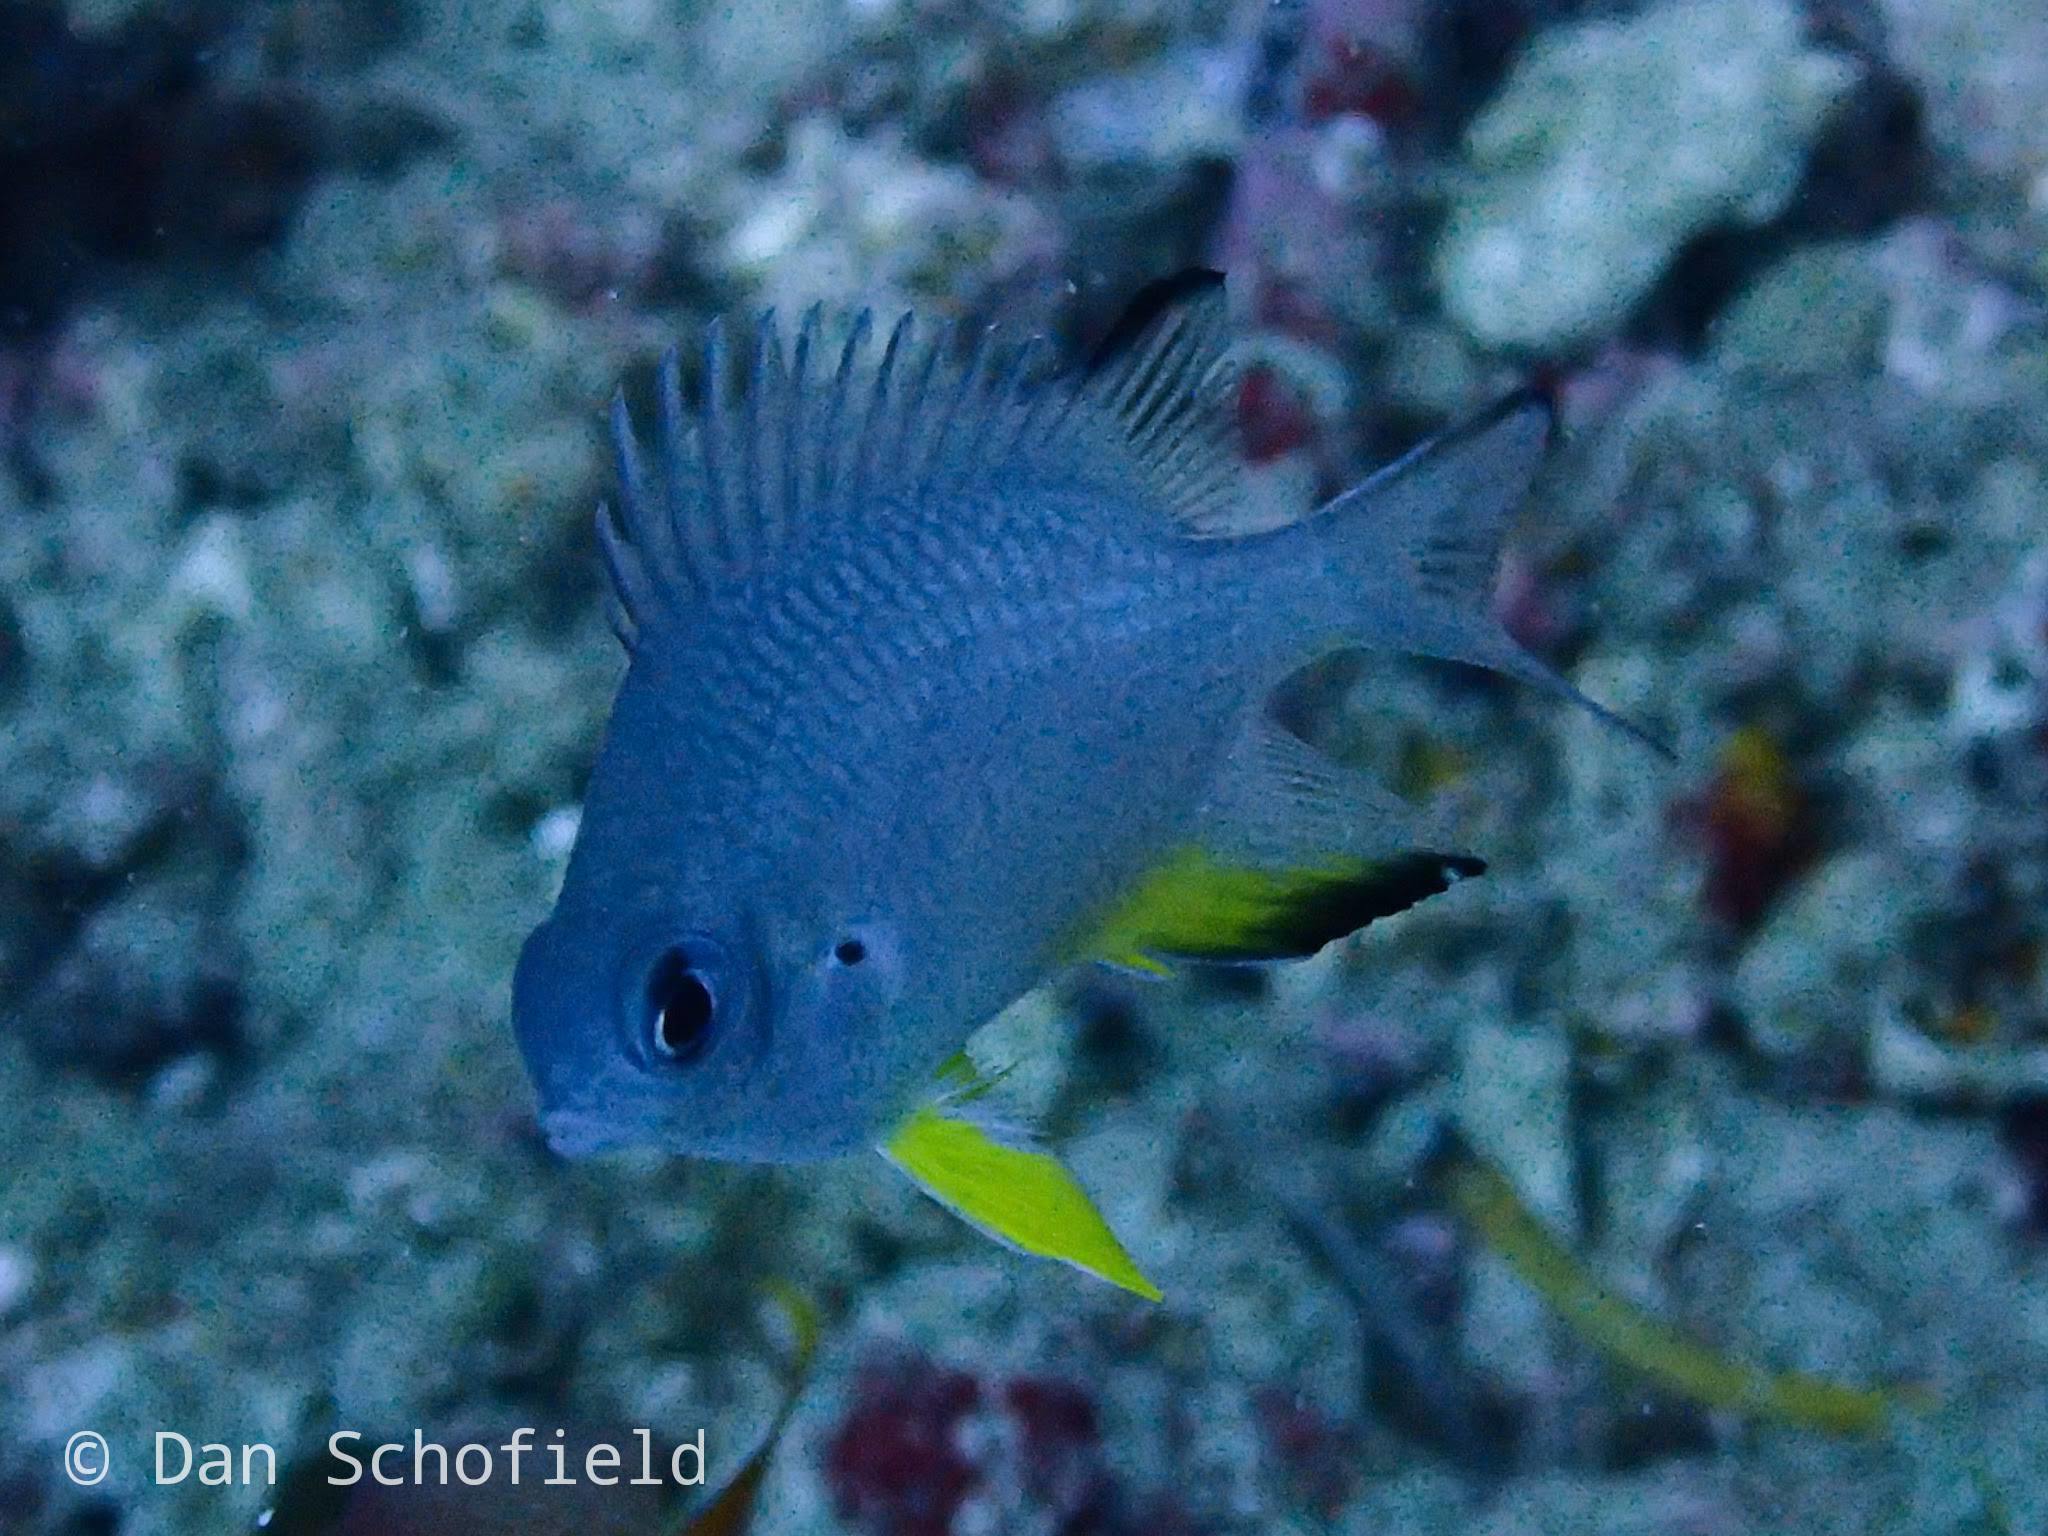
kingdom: Animalia
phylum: Chordata
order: Perciformes
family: Pomacentridae
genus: Amblyglyphidodon
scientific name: Amblyglyphidodon leucogaster
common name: White-belly damsel
